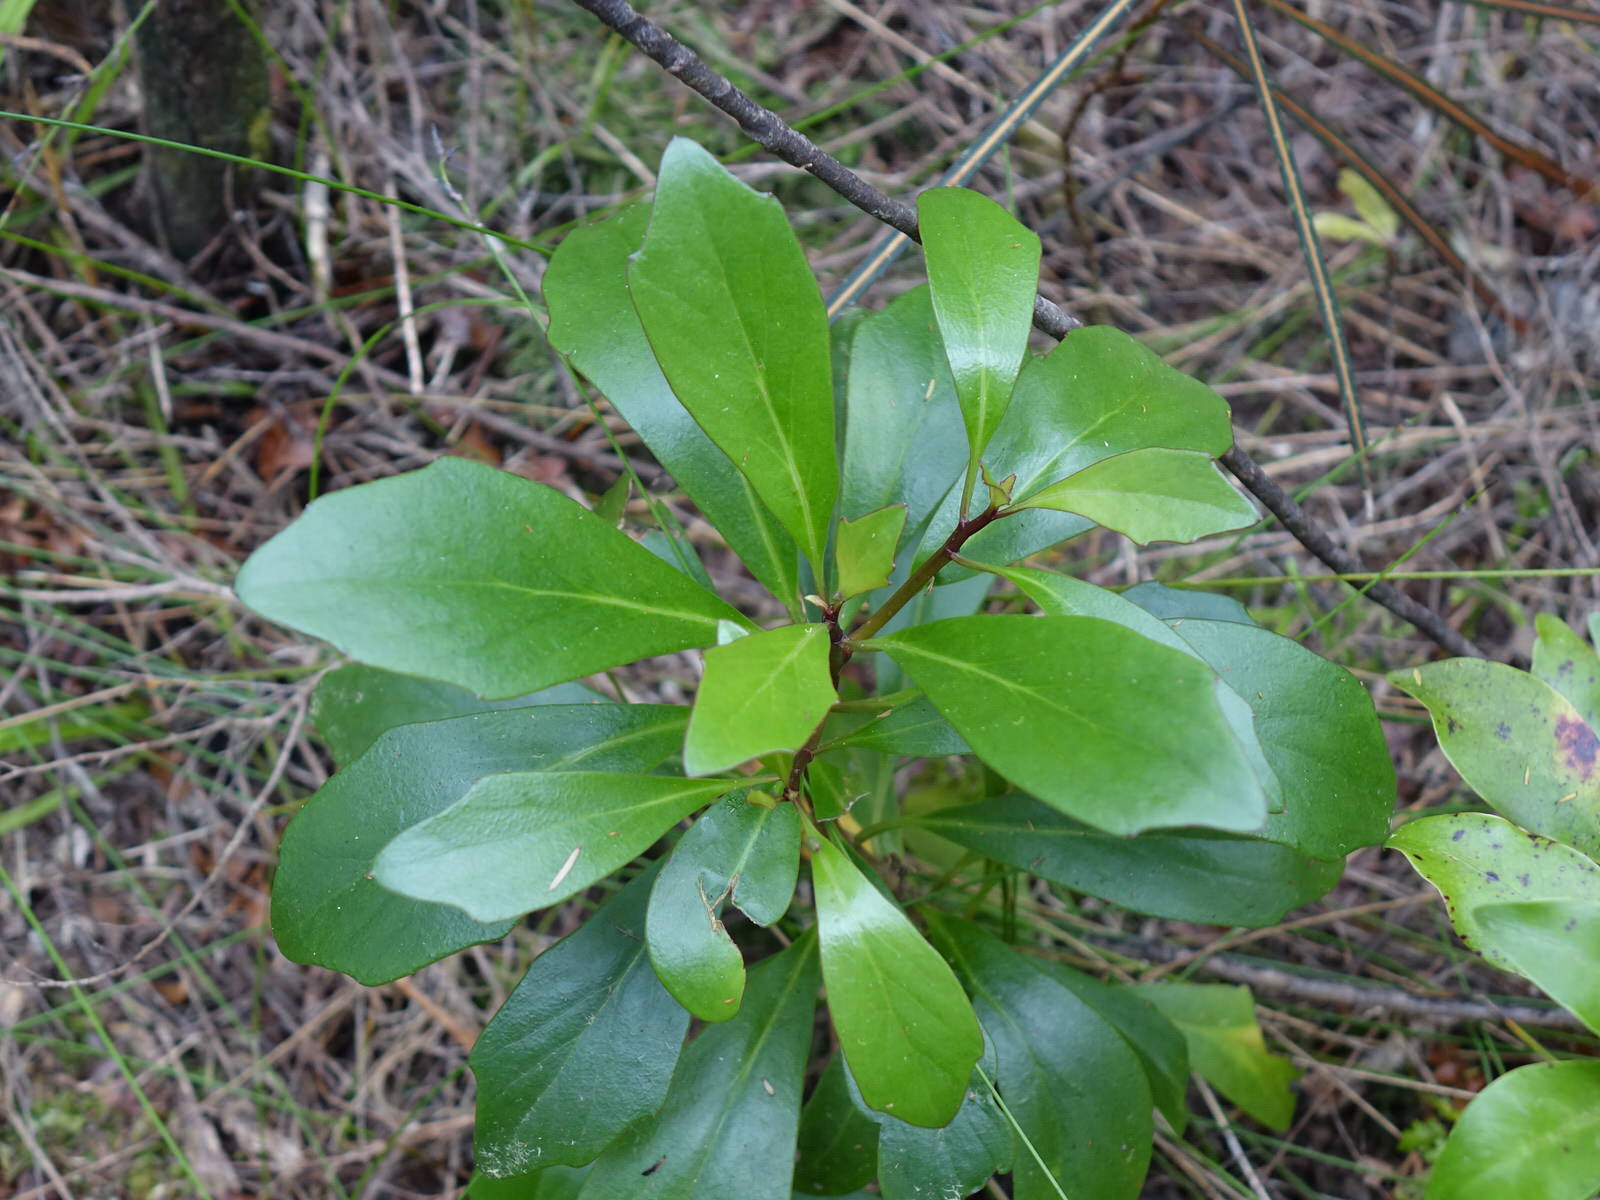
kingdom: Plantae
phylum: Tracheophyta
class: Magnoliopsida
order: Asterales
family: Asteraceae
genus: Brachyglottis
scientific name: Brachyglottis kirkii
